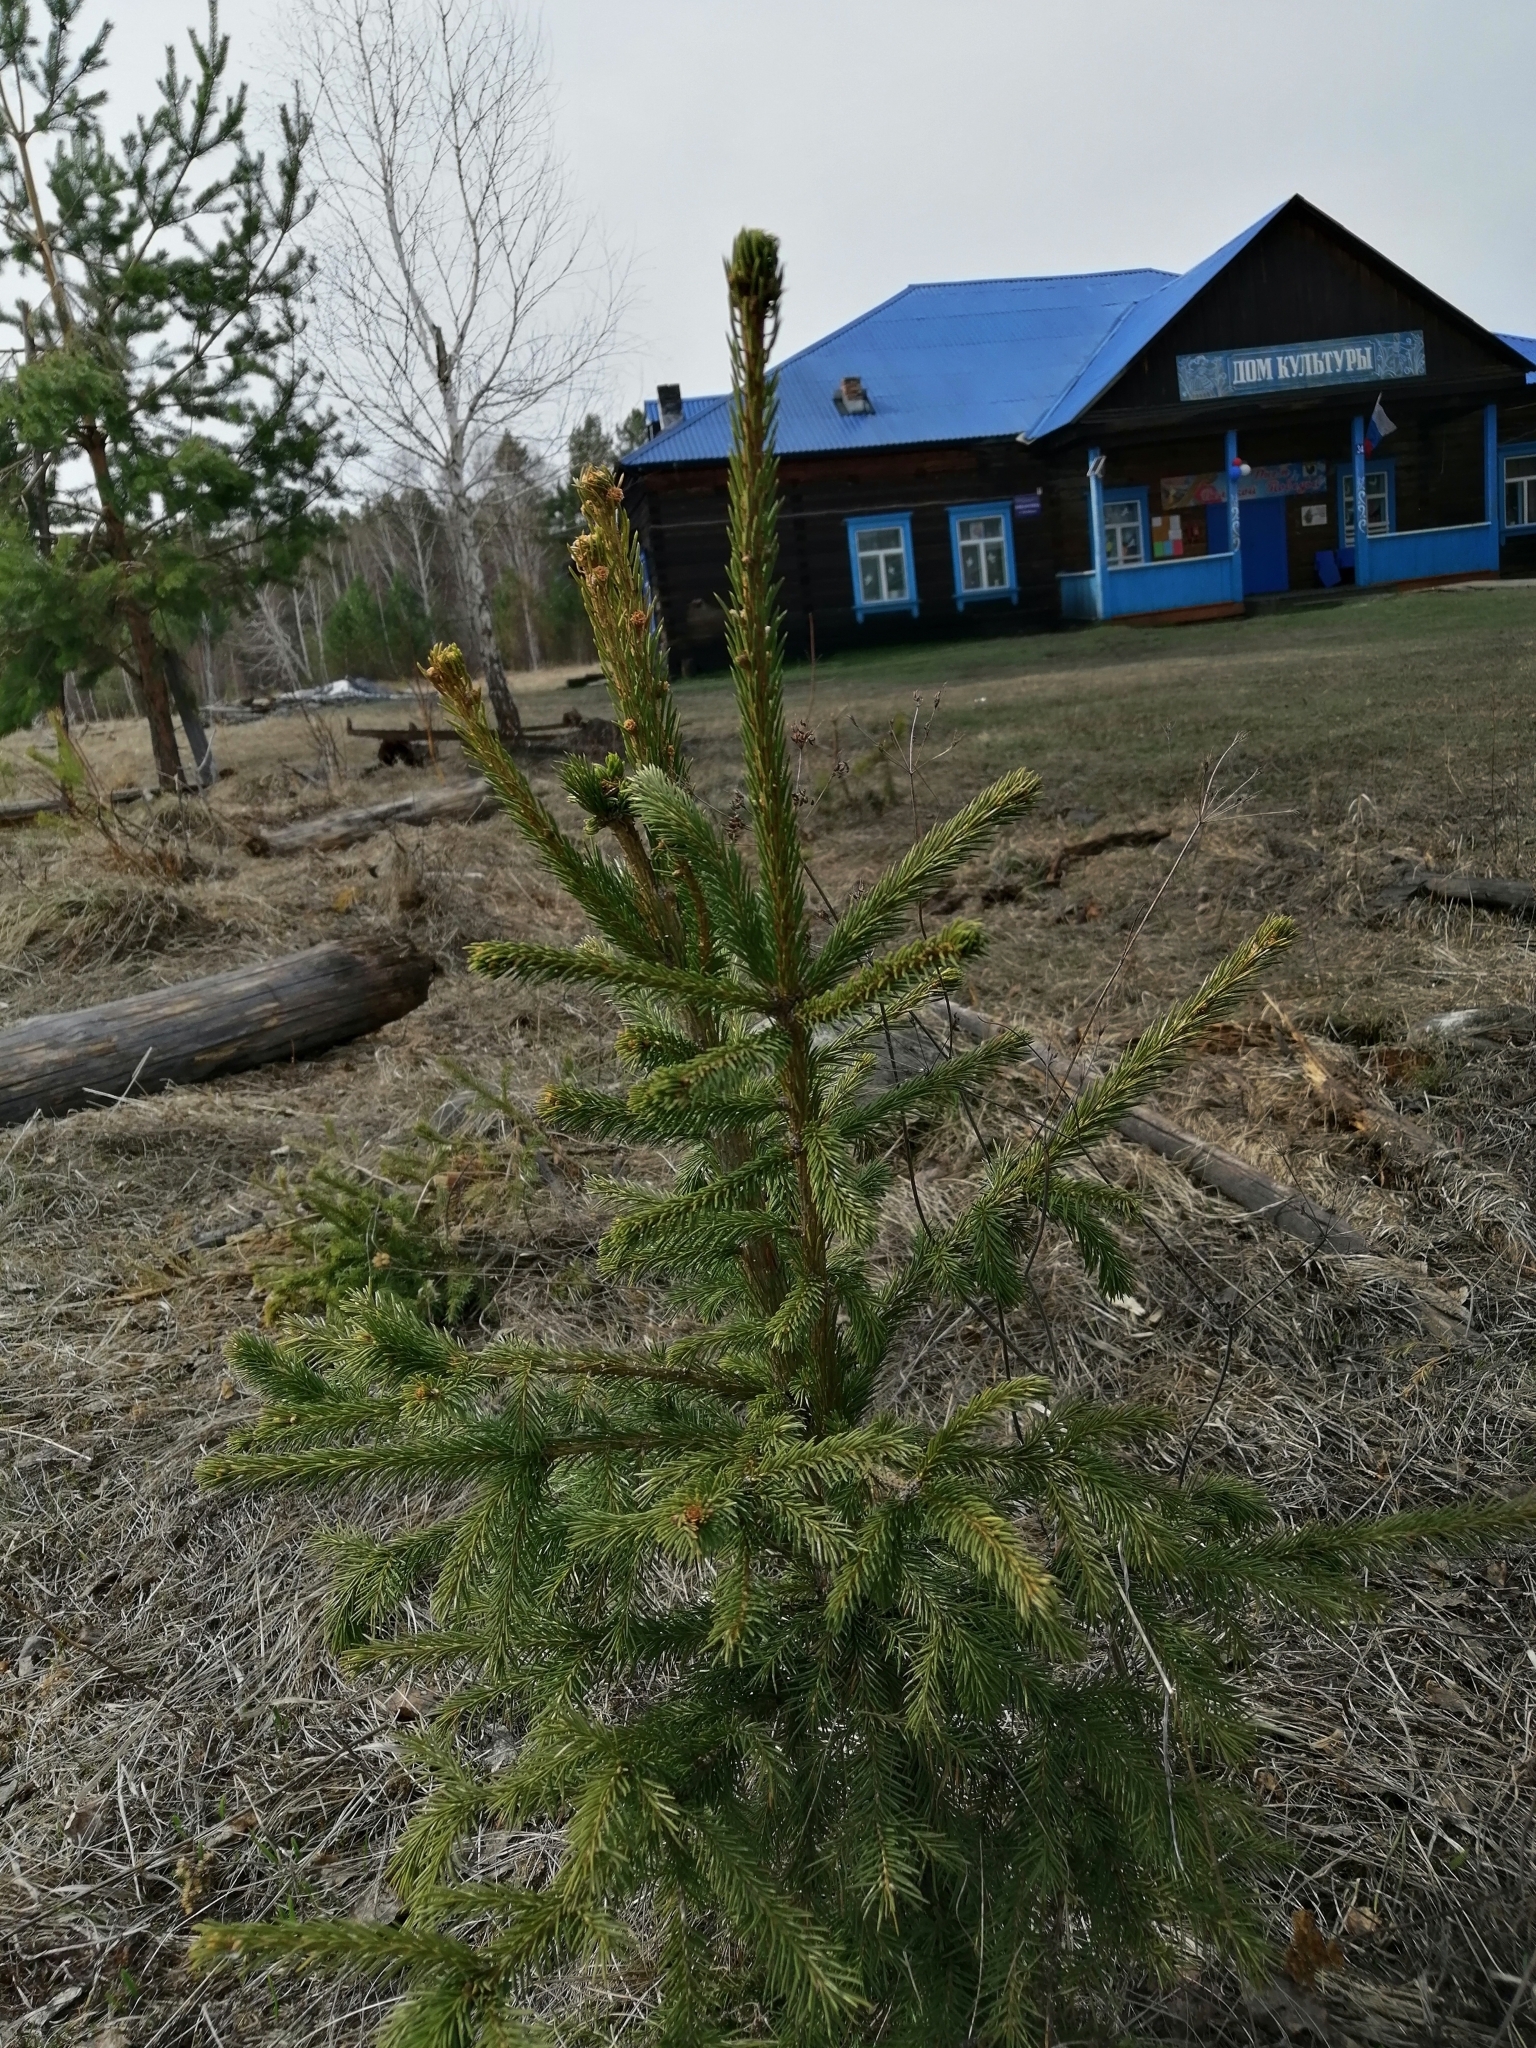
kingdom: Plantae
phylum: Tracheophyta
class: Pinopsida
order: Pinales
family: Pinaceae
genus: Picea
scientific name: Picea obovata
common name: Siberian spruce
